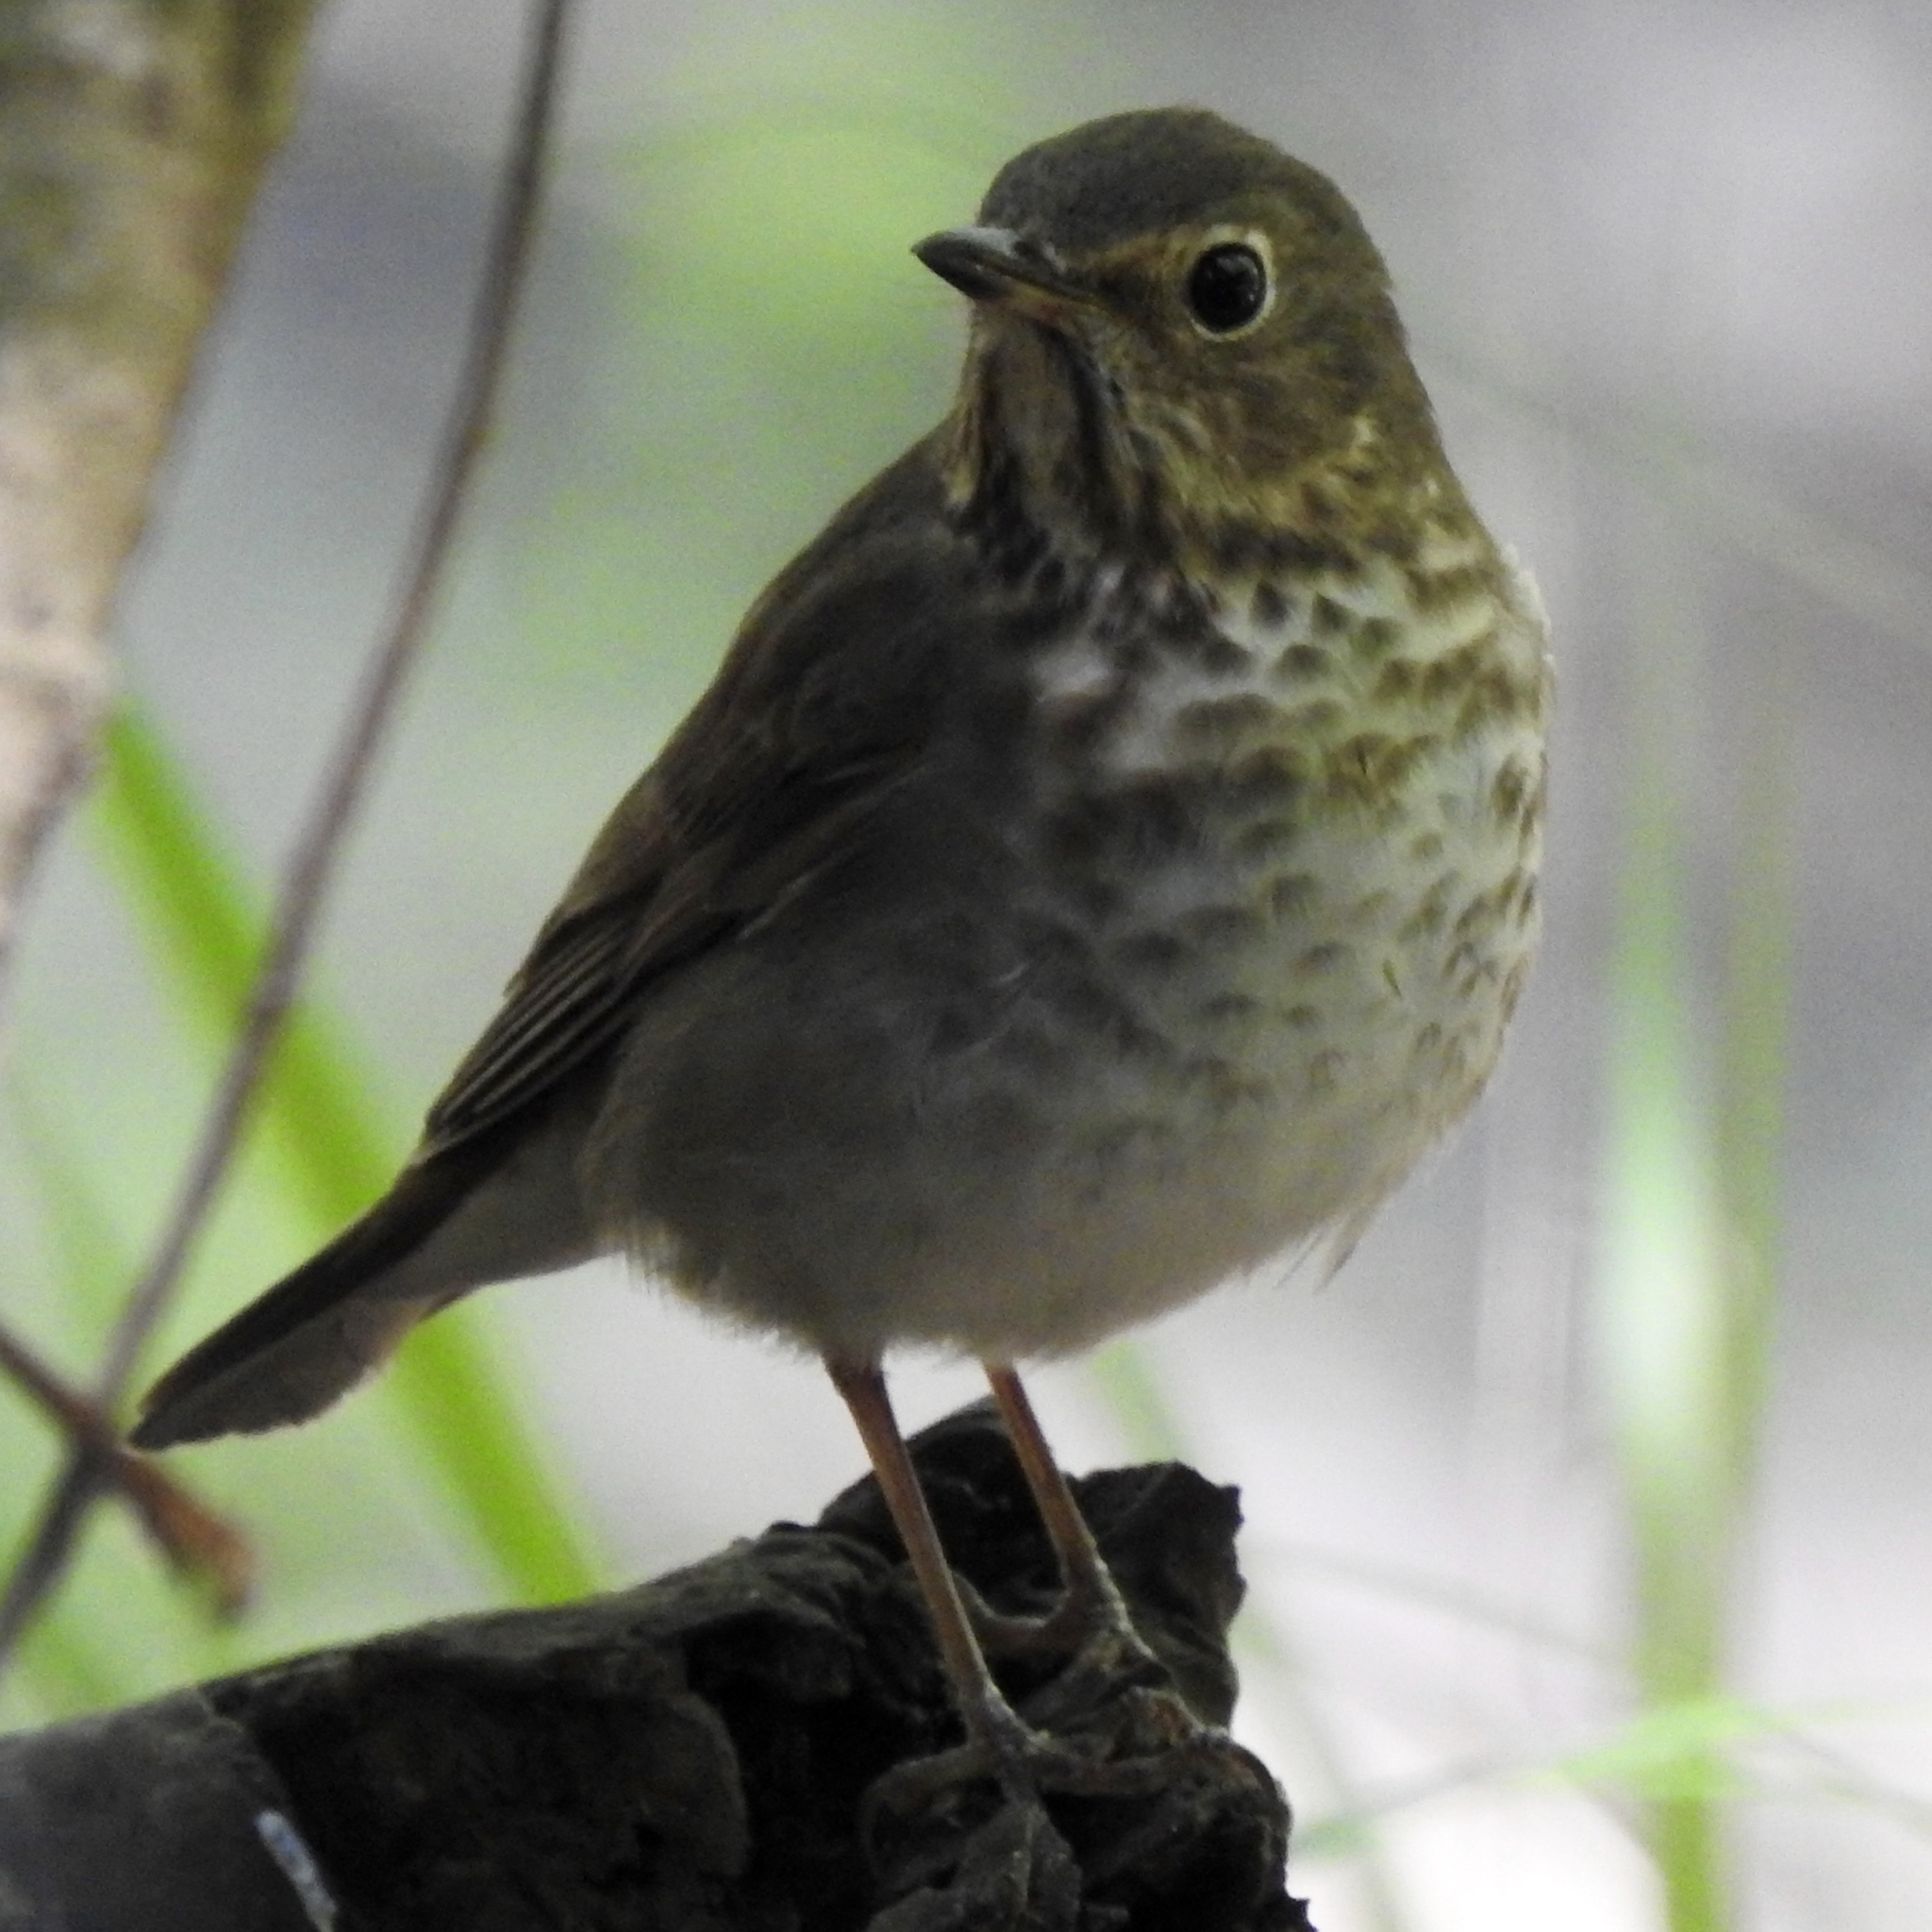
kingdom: Animalia
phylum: Chordata
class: Aves
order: Passeriformes
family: Turdidae
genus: Catharus
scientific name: Catharus guttatus
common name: Hermit thrush
